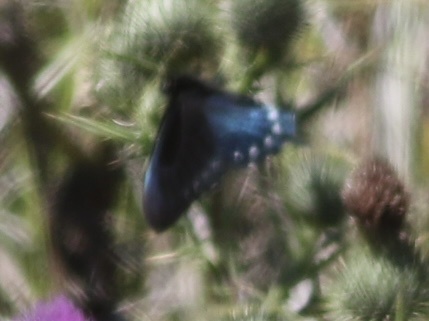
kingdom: Animalia
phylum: Arthropoda
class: Insecta
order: Lepidoptera
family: Papilionidae
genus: Battus
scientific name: Battus philenor
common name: Pipevine swallowtail
